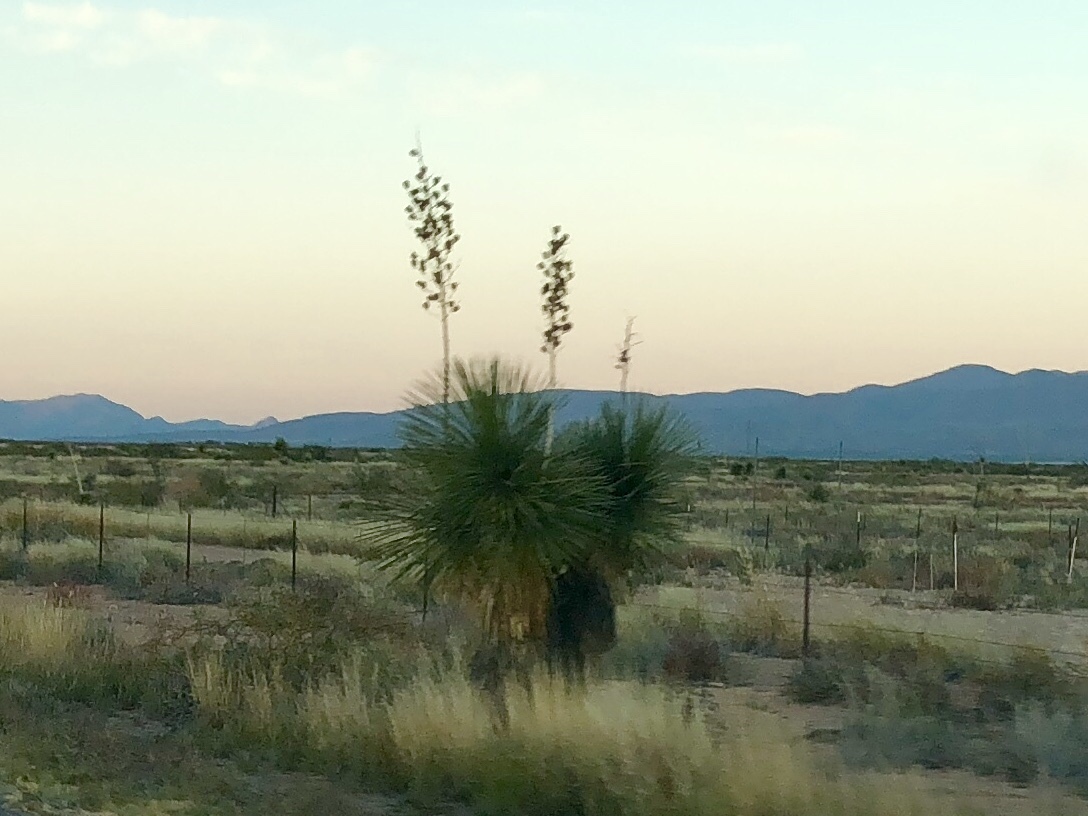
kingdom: Plantae
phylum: Tracheophyta
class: Liliopsida
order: Asparagales
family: Asparagaceae
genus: Yucca
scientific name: Yucca elata
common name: Palmella
